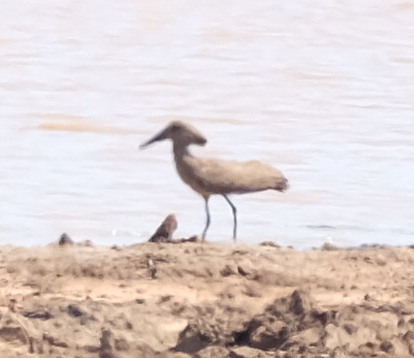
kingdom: Animalia
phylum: Chordata
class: Aves
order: Pelecaniformes
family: Scopidae
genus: Scopus
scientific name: Scopus umbretta
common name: Hamerkop
